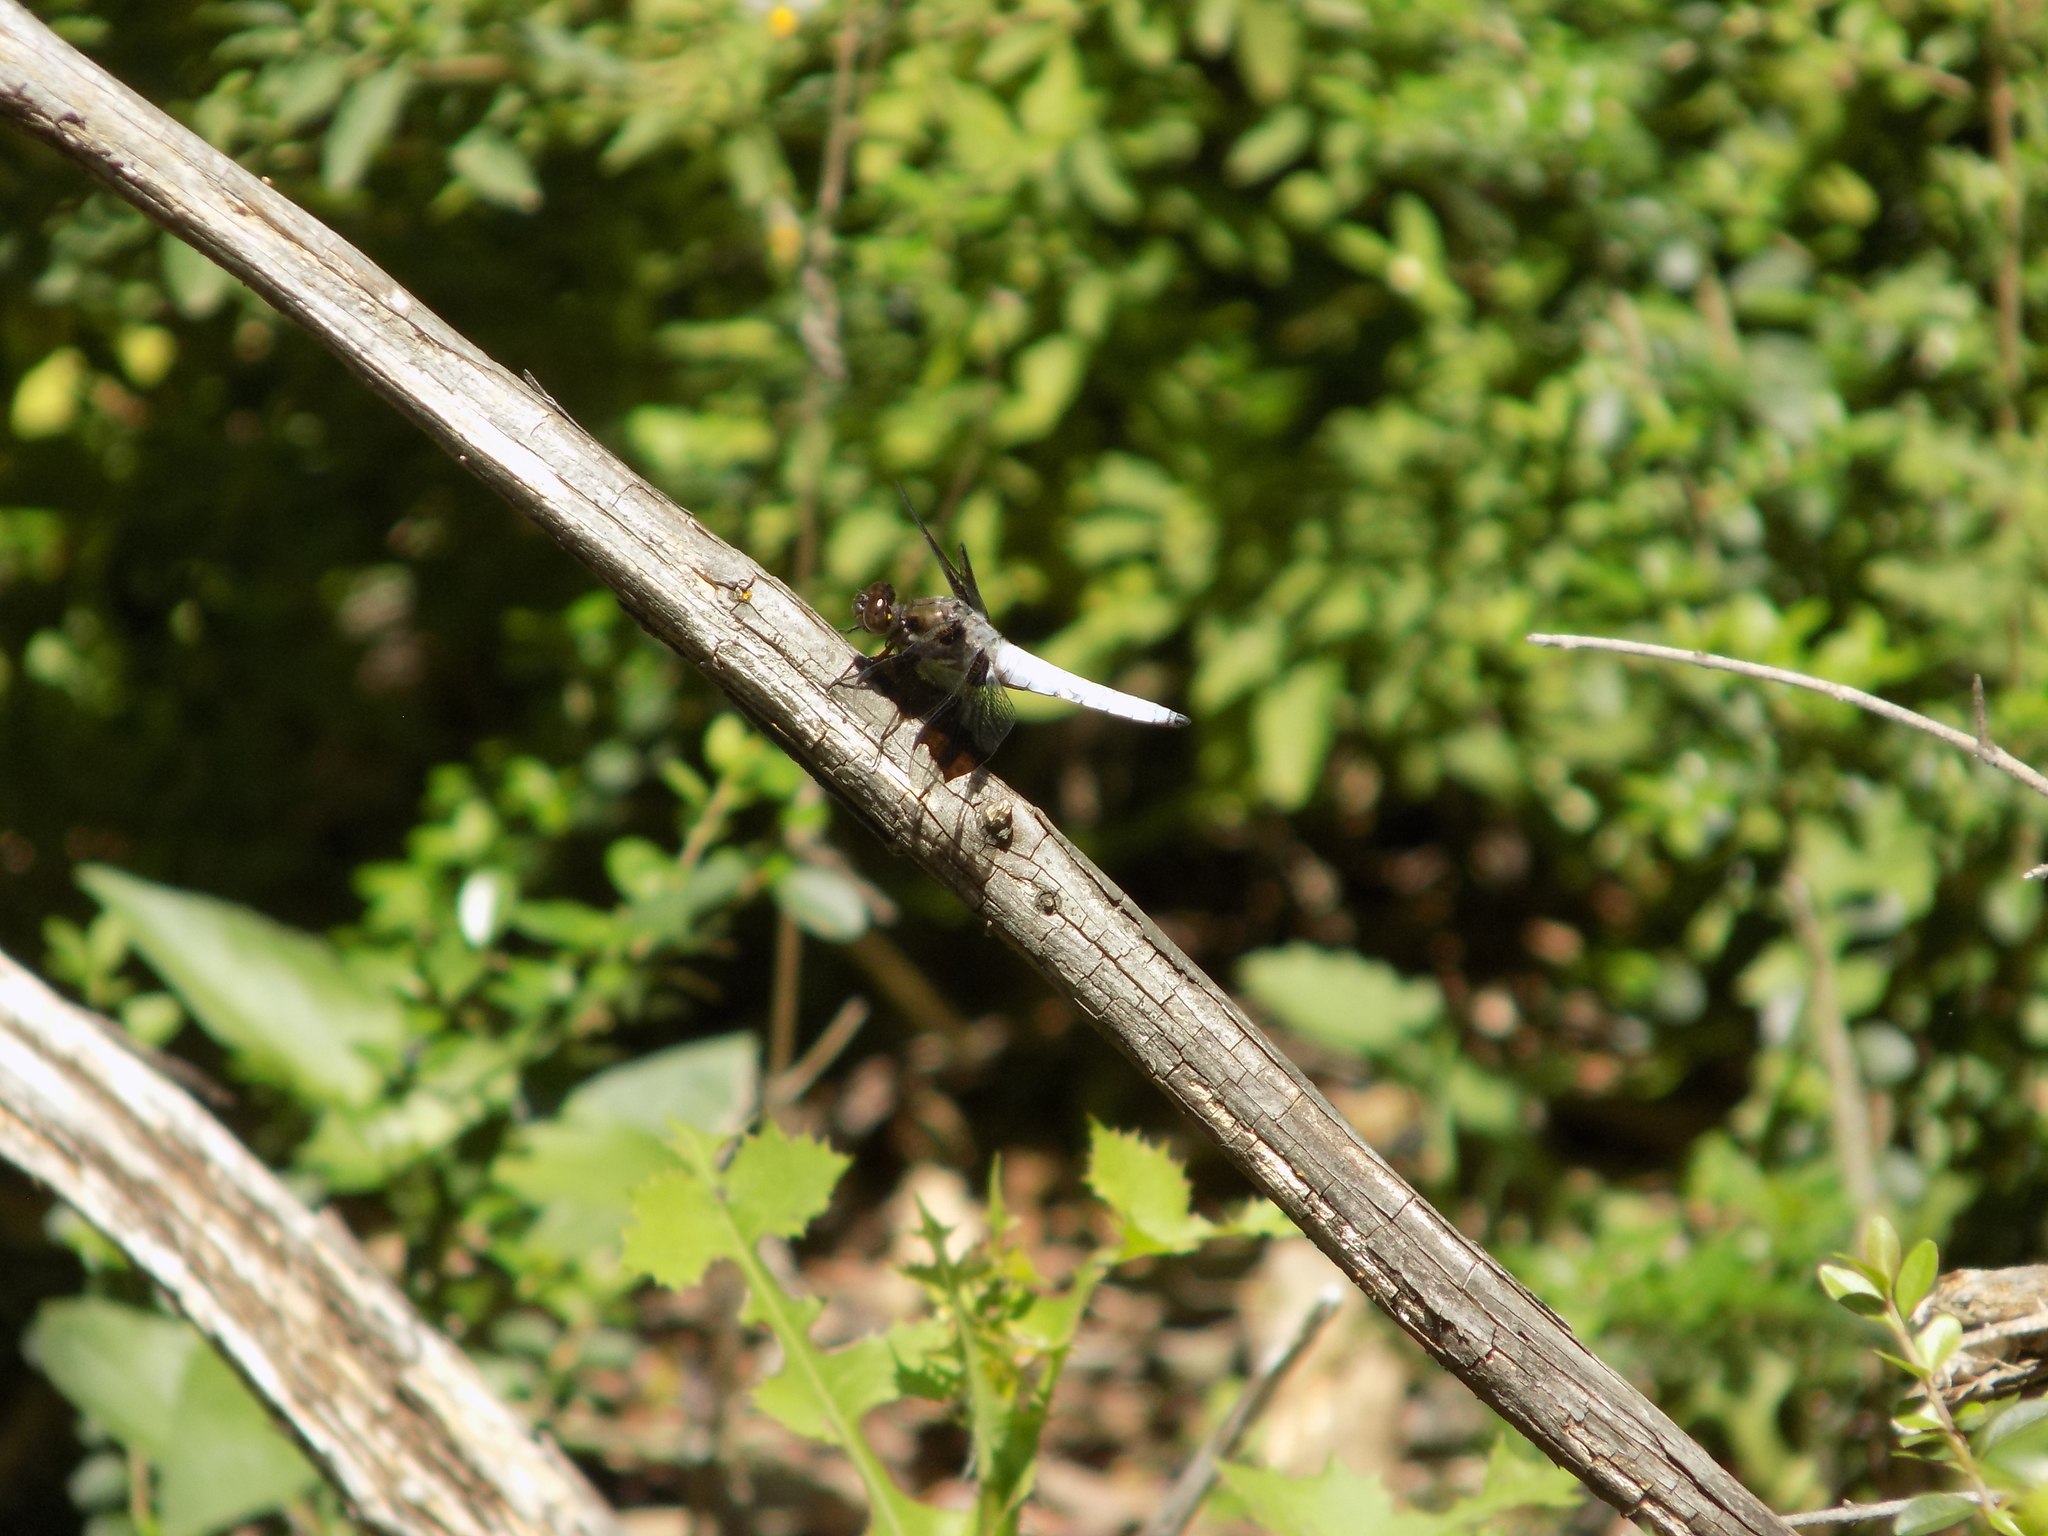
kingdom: Animalia
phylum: Arthropoda
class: Insecta
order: Odonata
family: Libellulidae
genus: Plathemis
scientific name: Plathemis lydia
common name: Common whitetail
